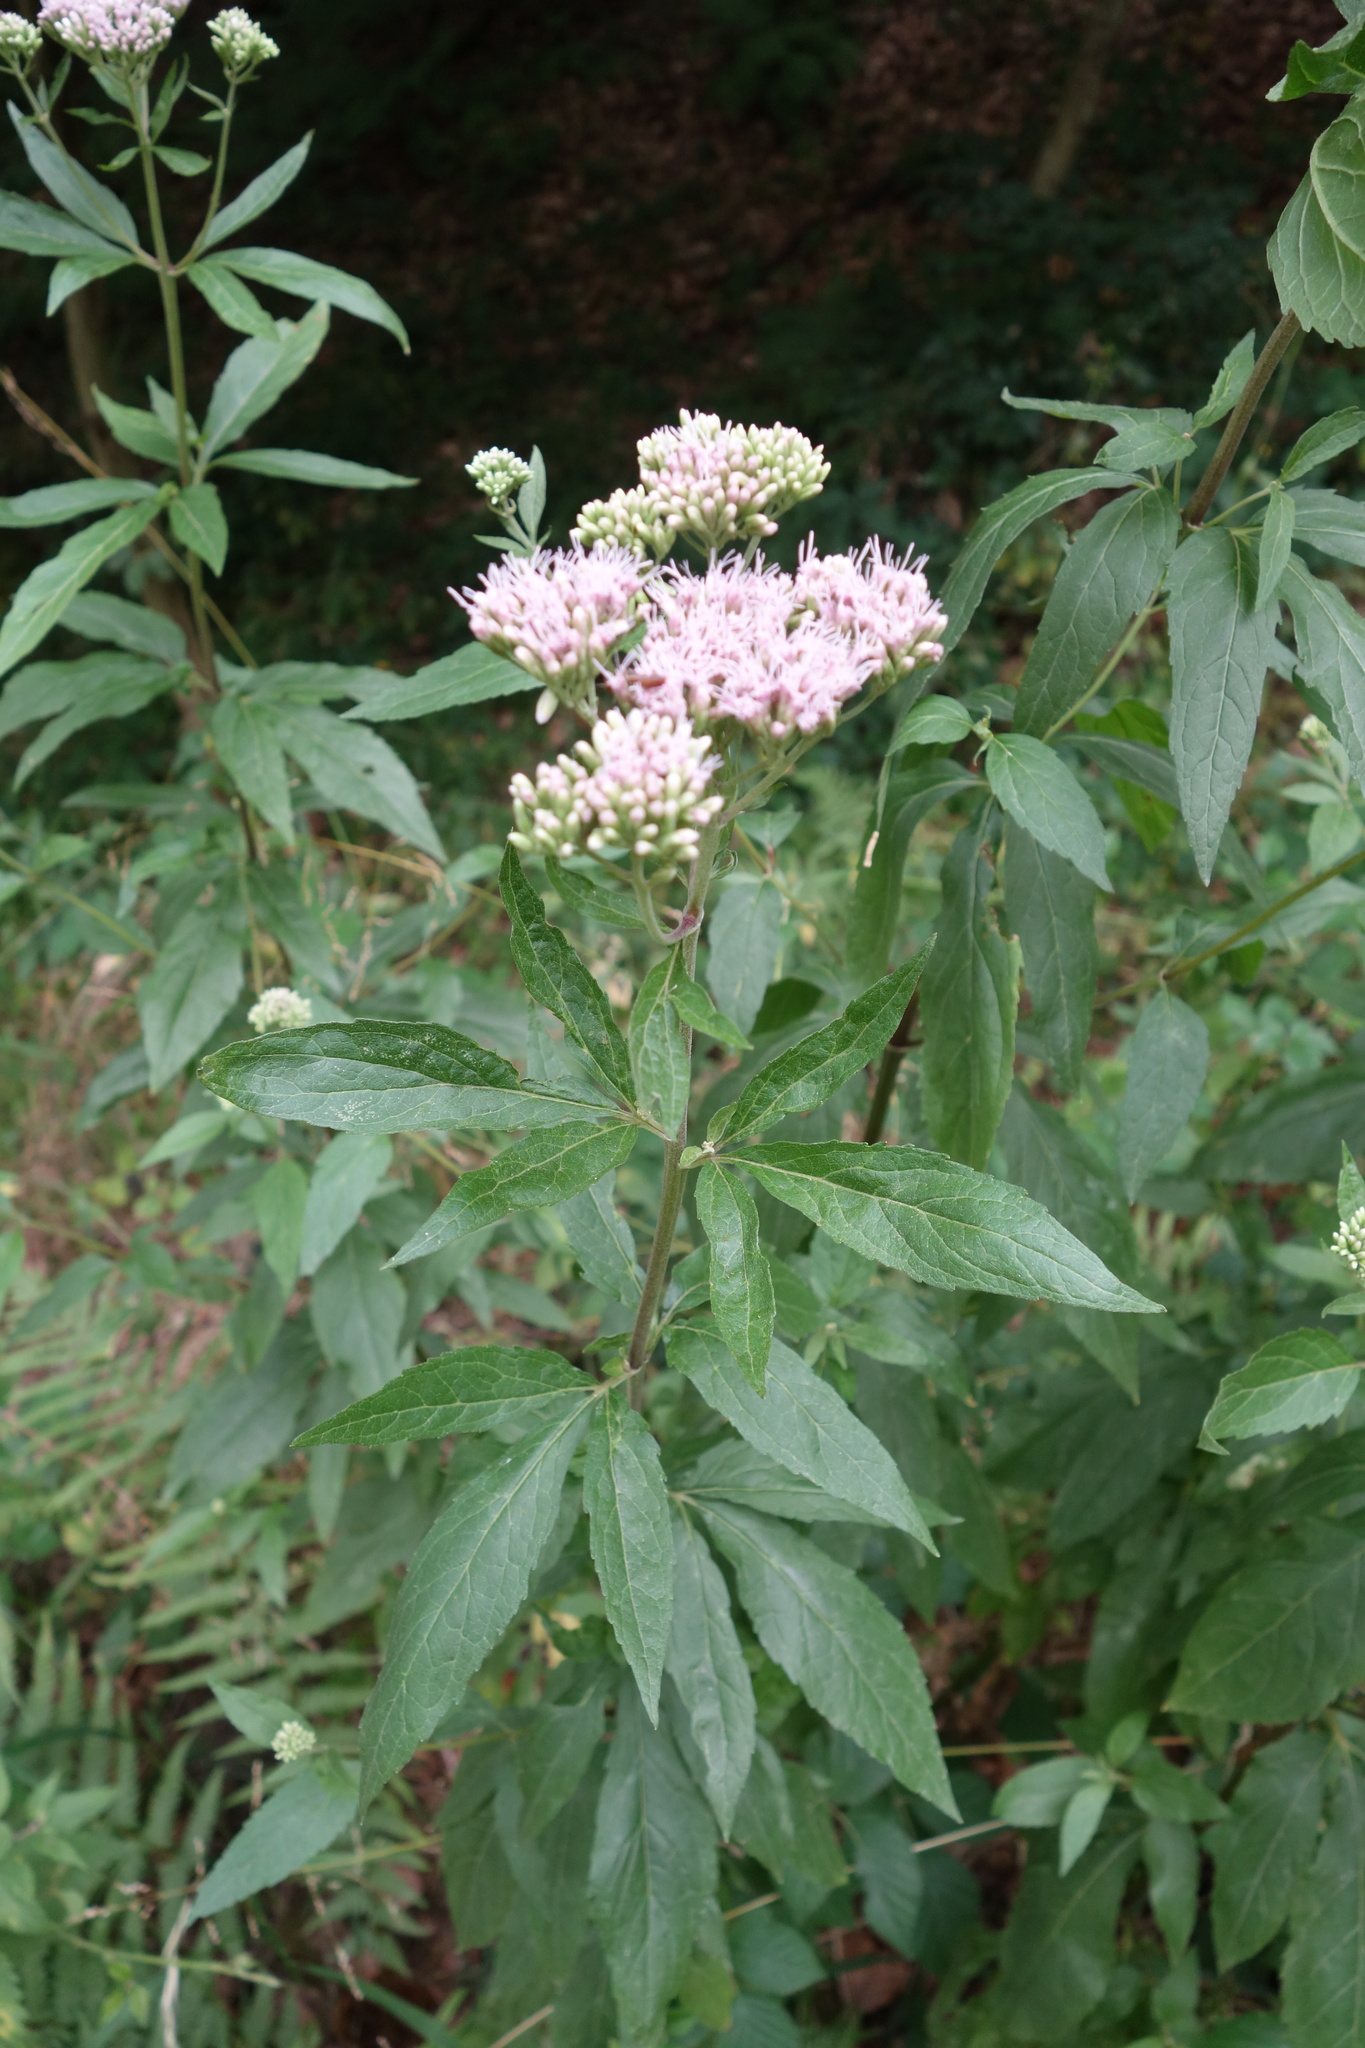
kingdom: Plantae
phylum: Tracheophyta
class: Magnoliopsida
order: Asterales
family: Asteraceae
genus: Eupatorium
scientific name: Eupatorium cannabinum
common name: Hemp-agrimony
